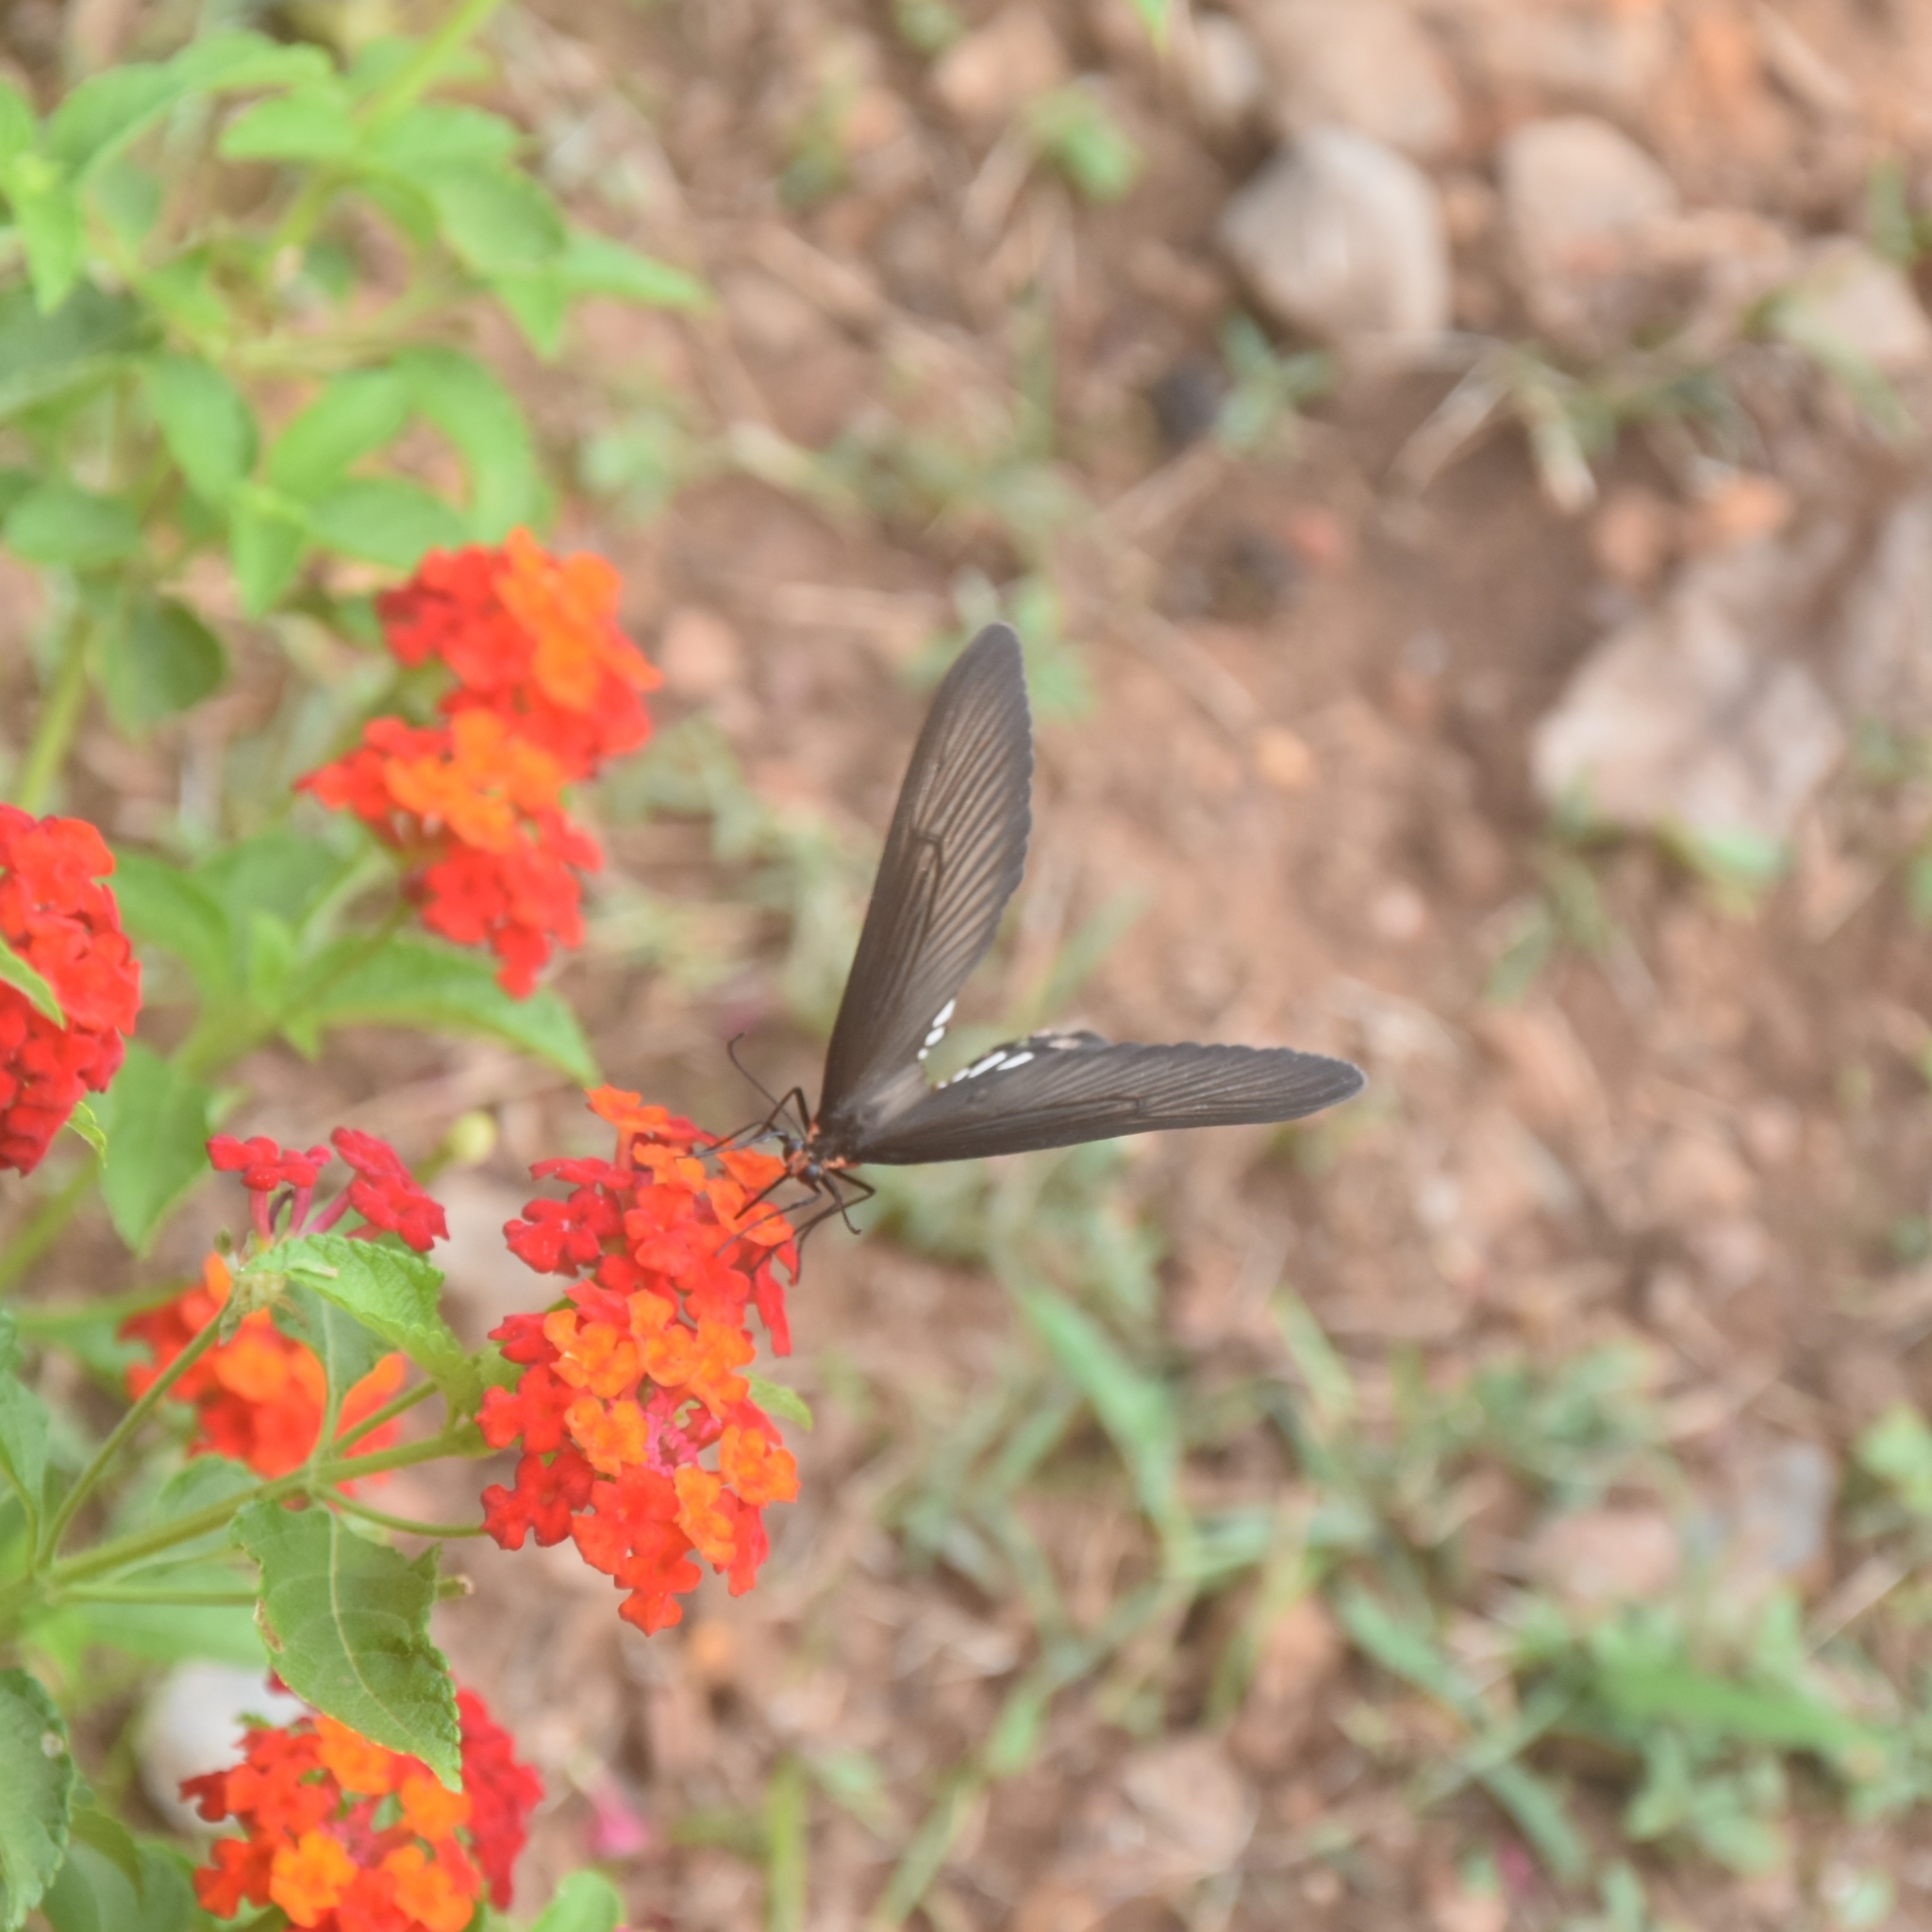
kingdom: Animalia
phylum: Arthropoda
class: Insecta
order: Lepidoptera
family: Papilionidae
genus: Pachliopta
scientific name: Pachliopta aristolochiae
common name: Common rose
